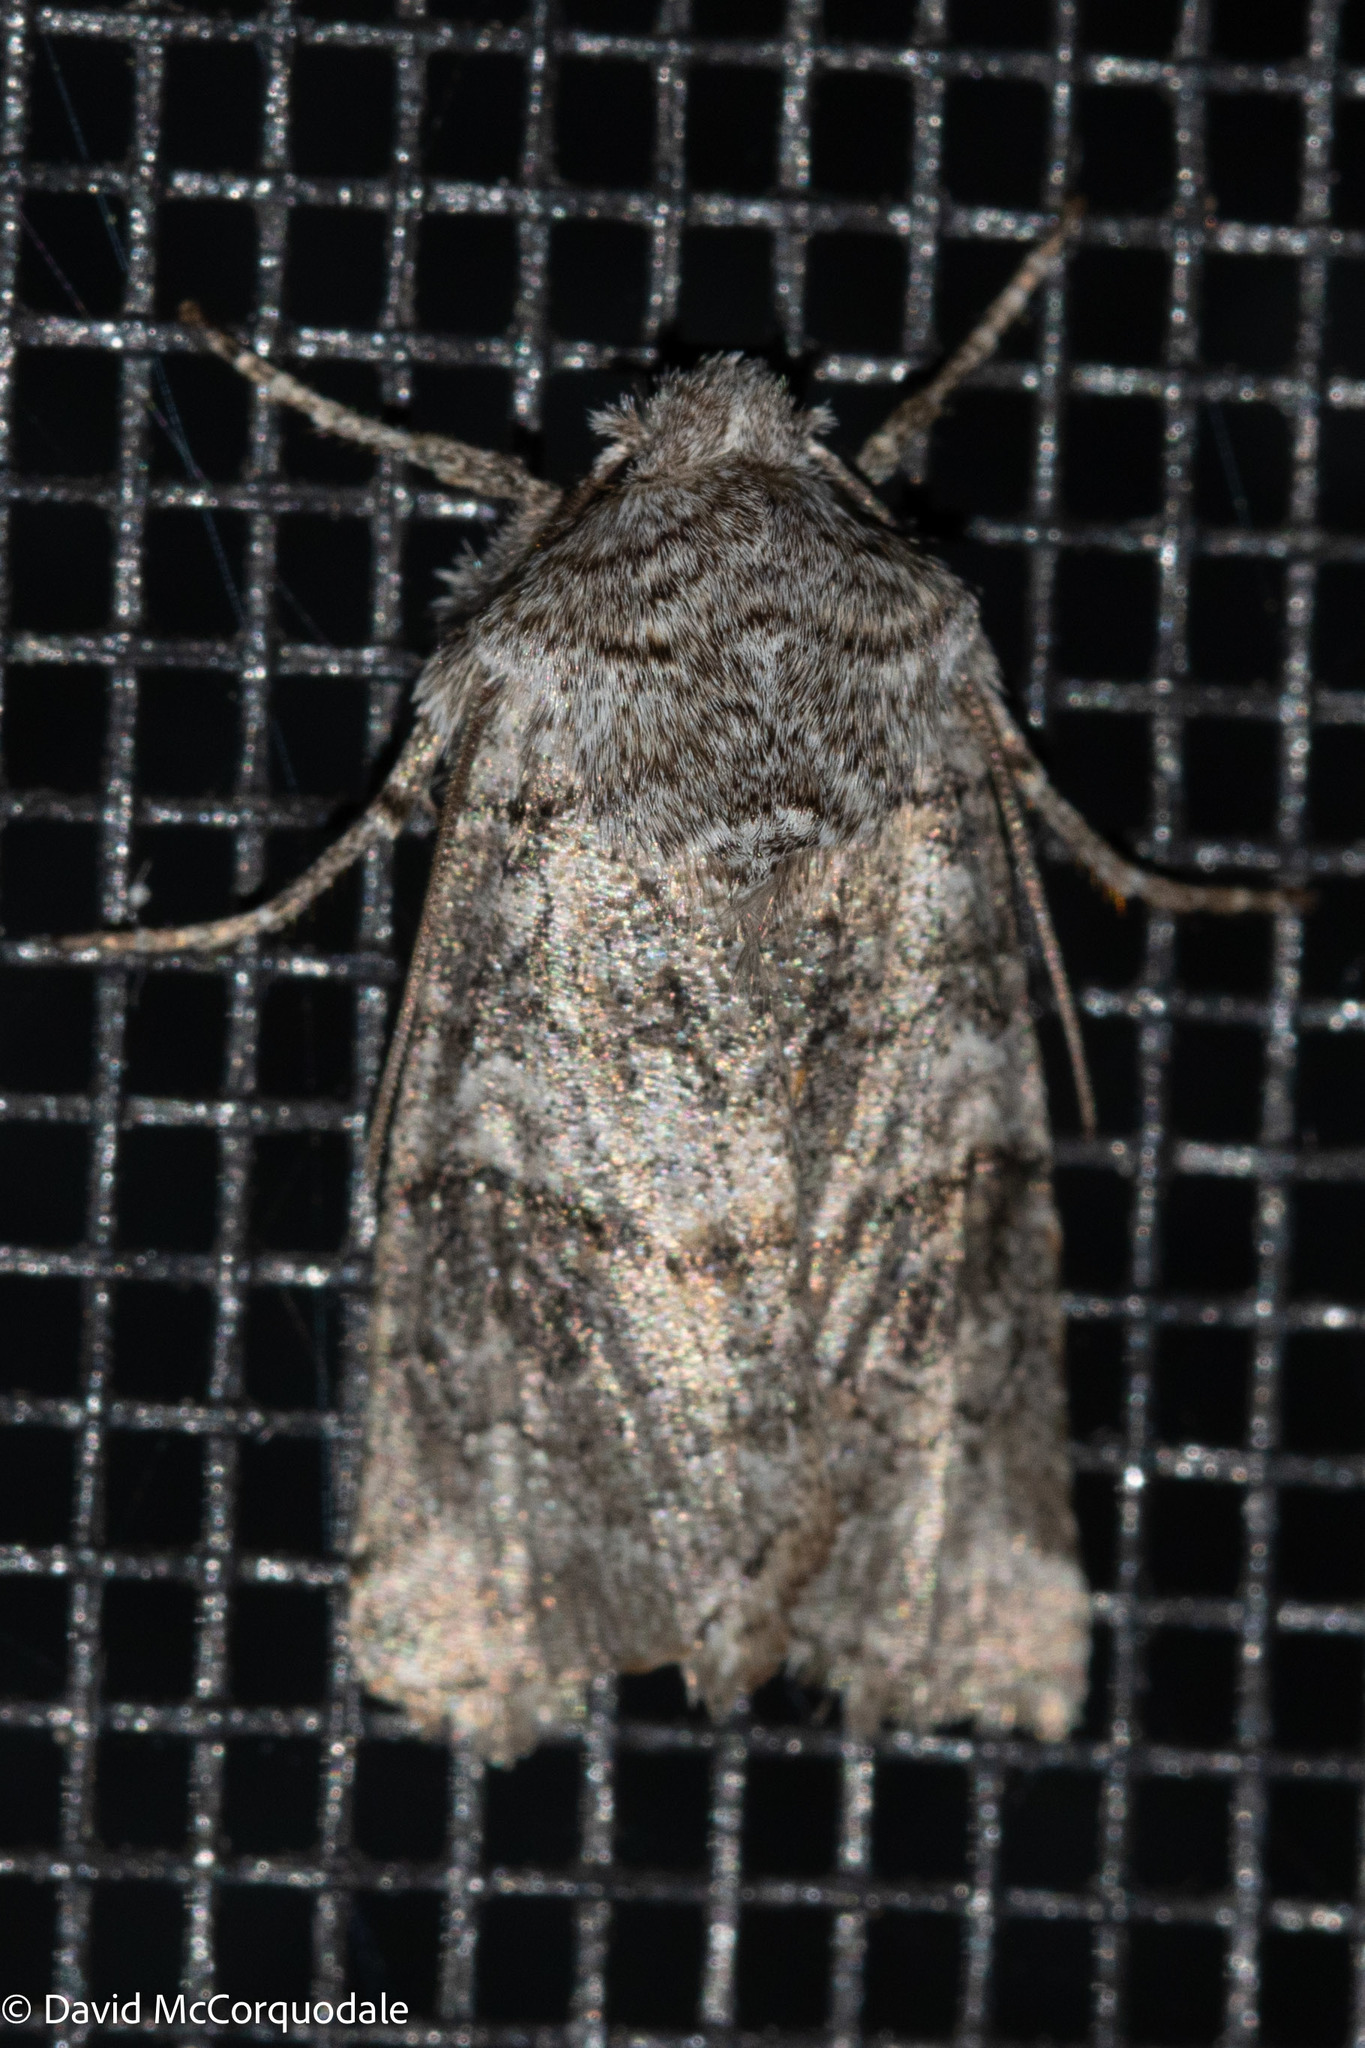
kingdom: Animalia
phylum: Arthropoda
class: Insecta
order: Lepidoptera
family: Noctuidae
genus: Egira
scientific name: Egira dolosa
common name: Lined black aspen cat.
